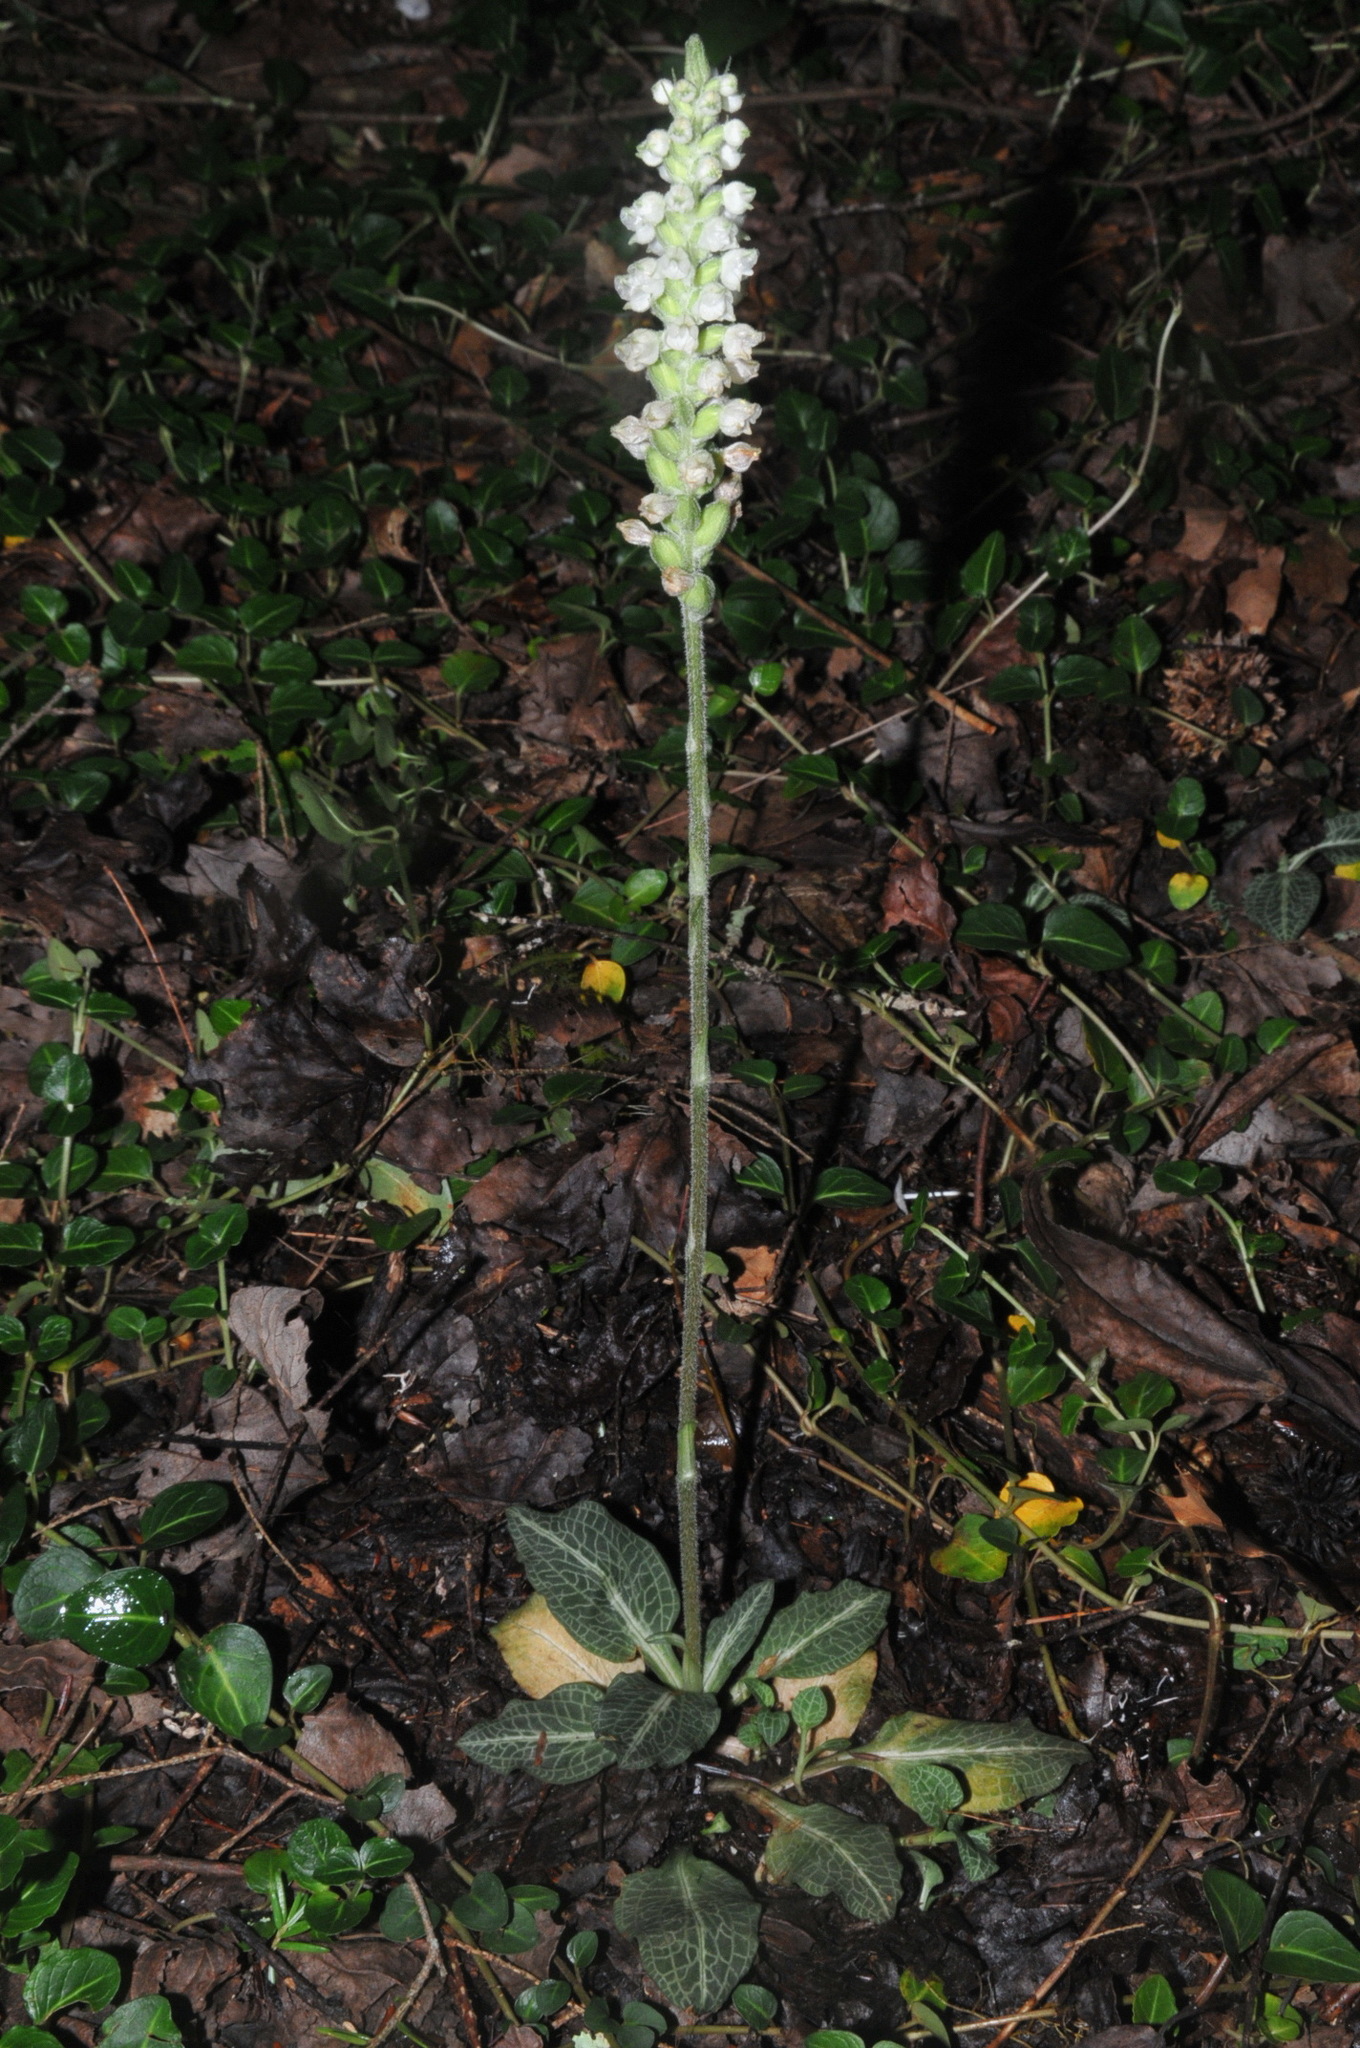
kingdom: Plantae
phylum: Tracheophyta
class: Liliopsida
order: Asparagales
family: Orchidaceae
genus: Goodyera
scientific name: Goodyera pubescens
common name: Downy rattlesnake-plantain
